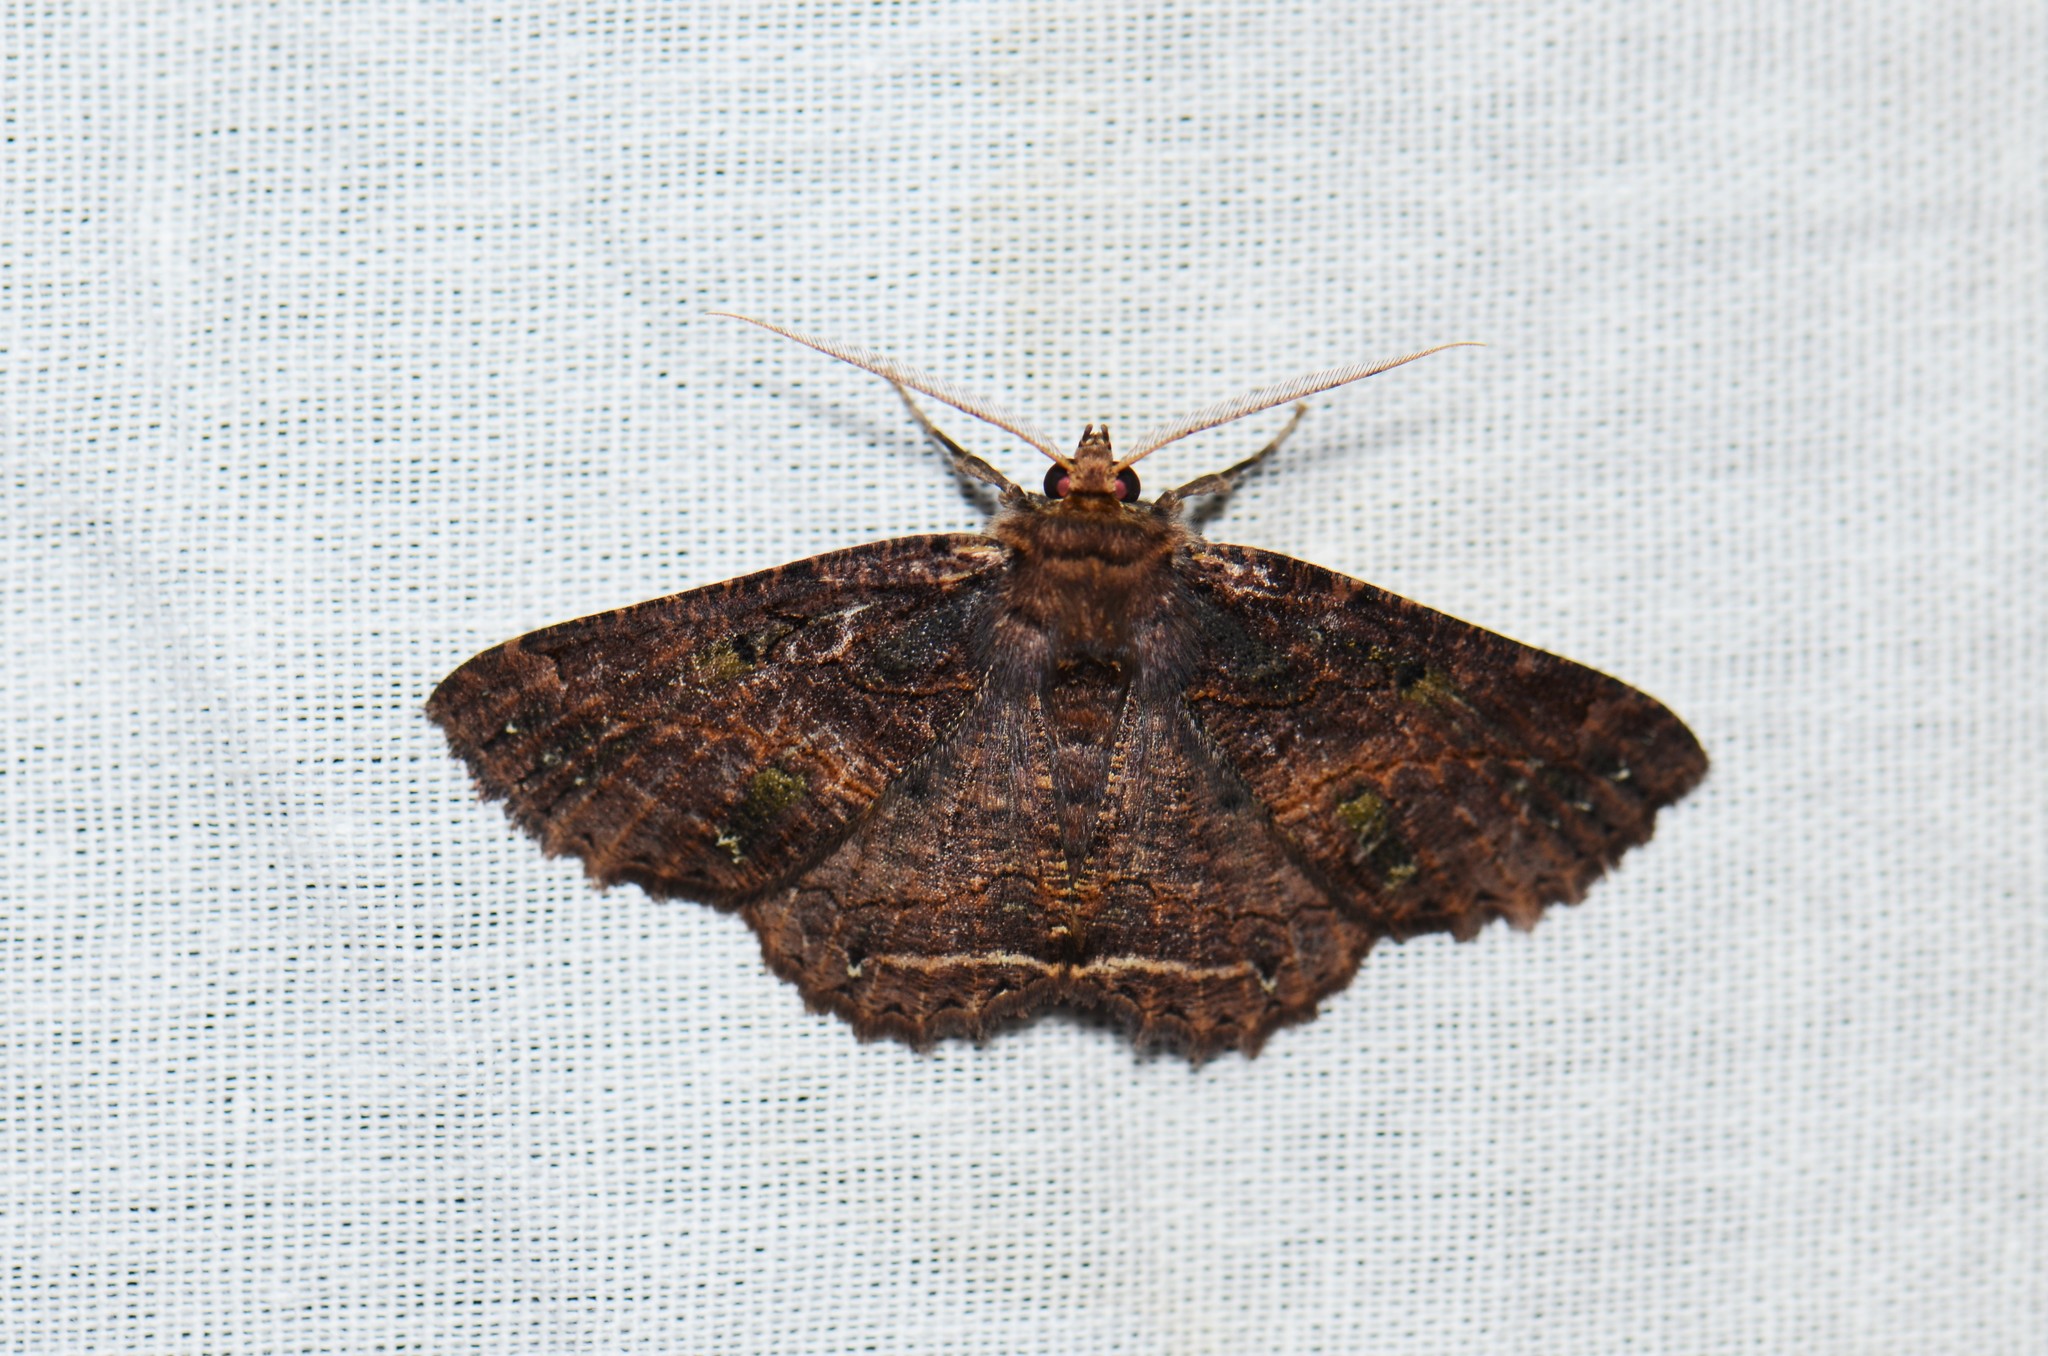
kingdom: Animalia
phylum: Arthropoda
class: Insecta
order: Lepidoptera
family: Geometridae
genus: Dasyboarmia
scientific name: Dasyboarmia hyperdasys
